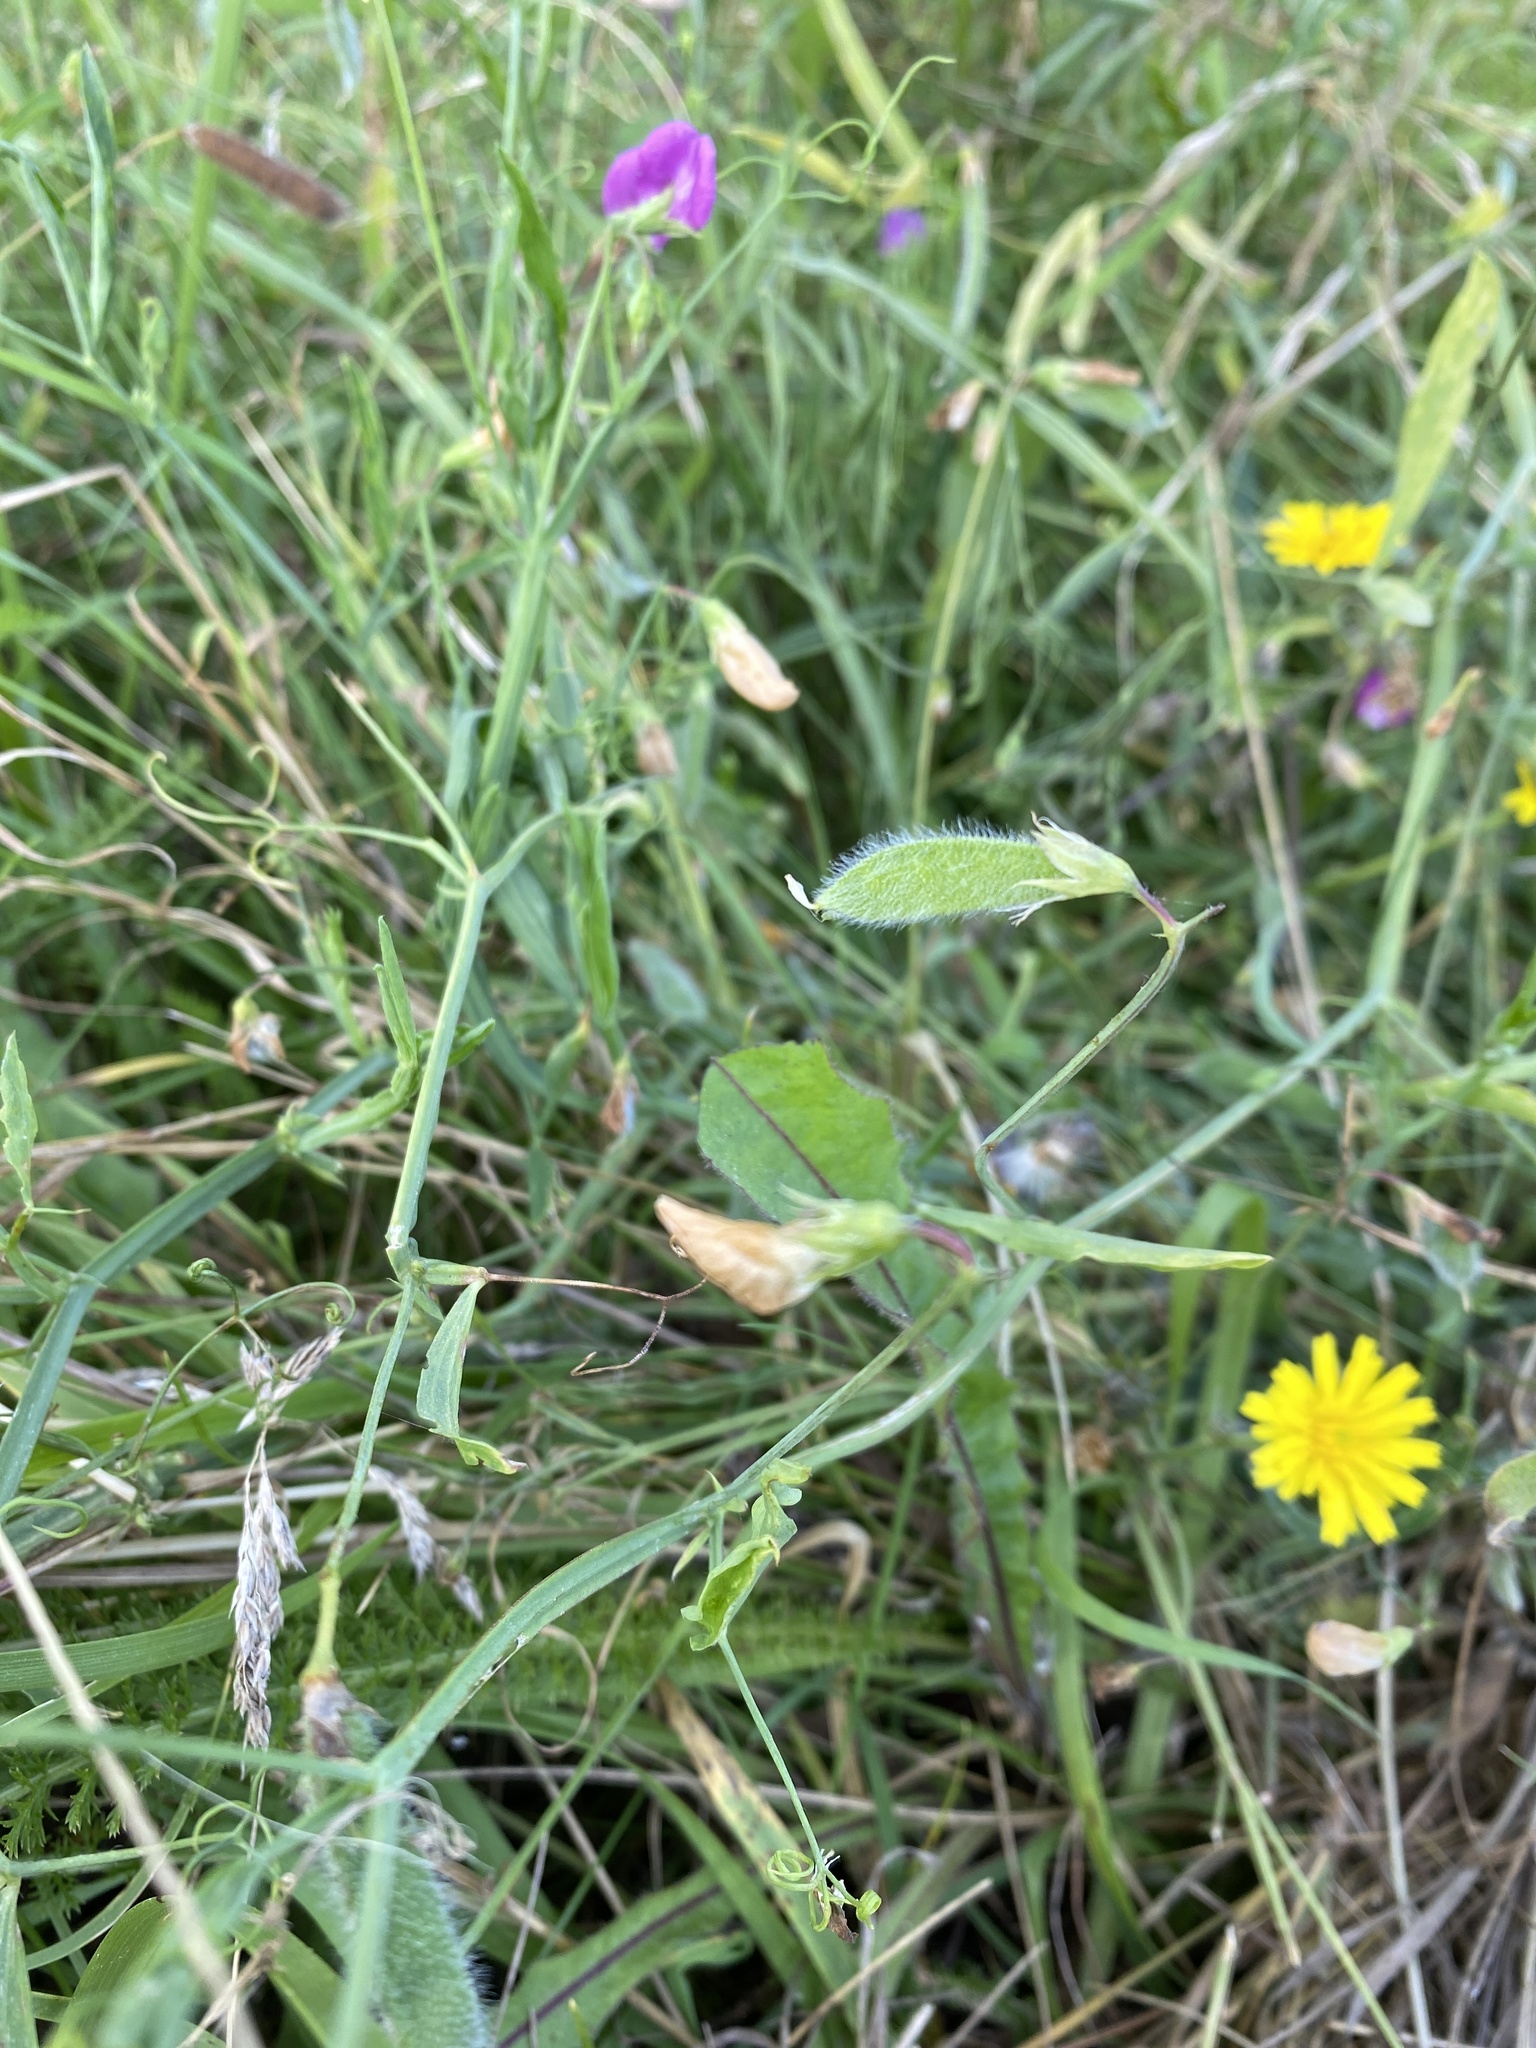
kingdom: Plantae
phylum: Tracheophyta
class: Magnoliopsida
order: Fabales
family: Fabaceae
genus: Lathyrus
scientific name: Lathyrus hirsutus
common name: Hairy vetchling
